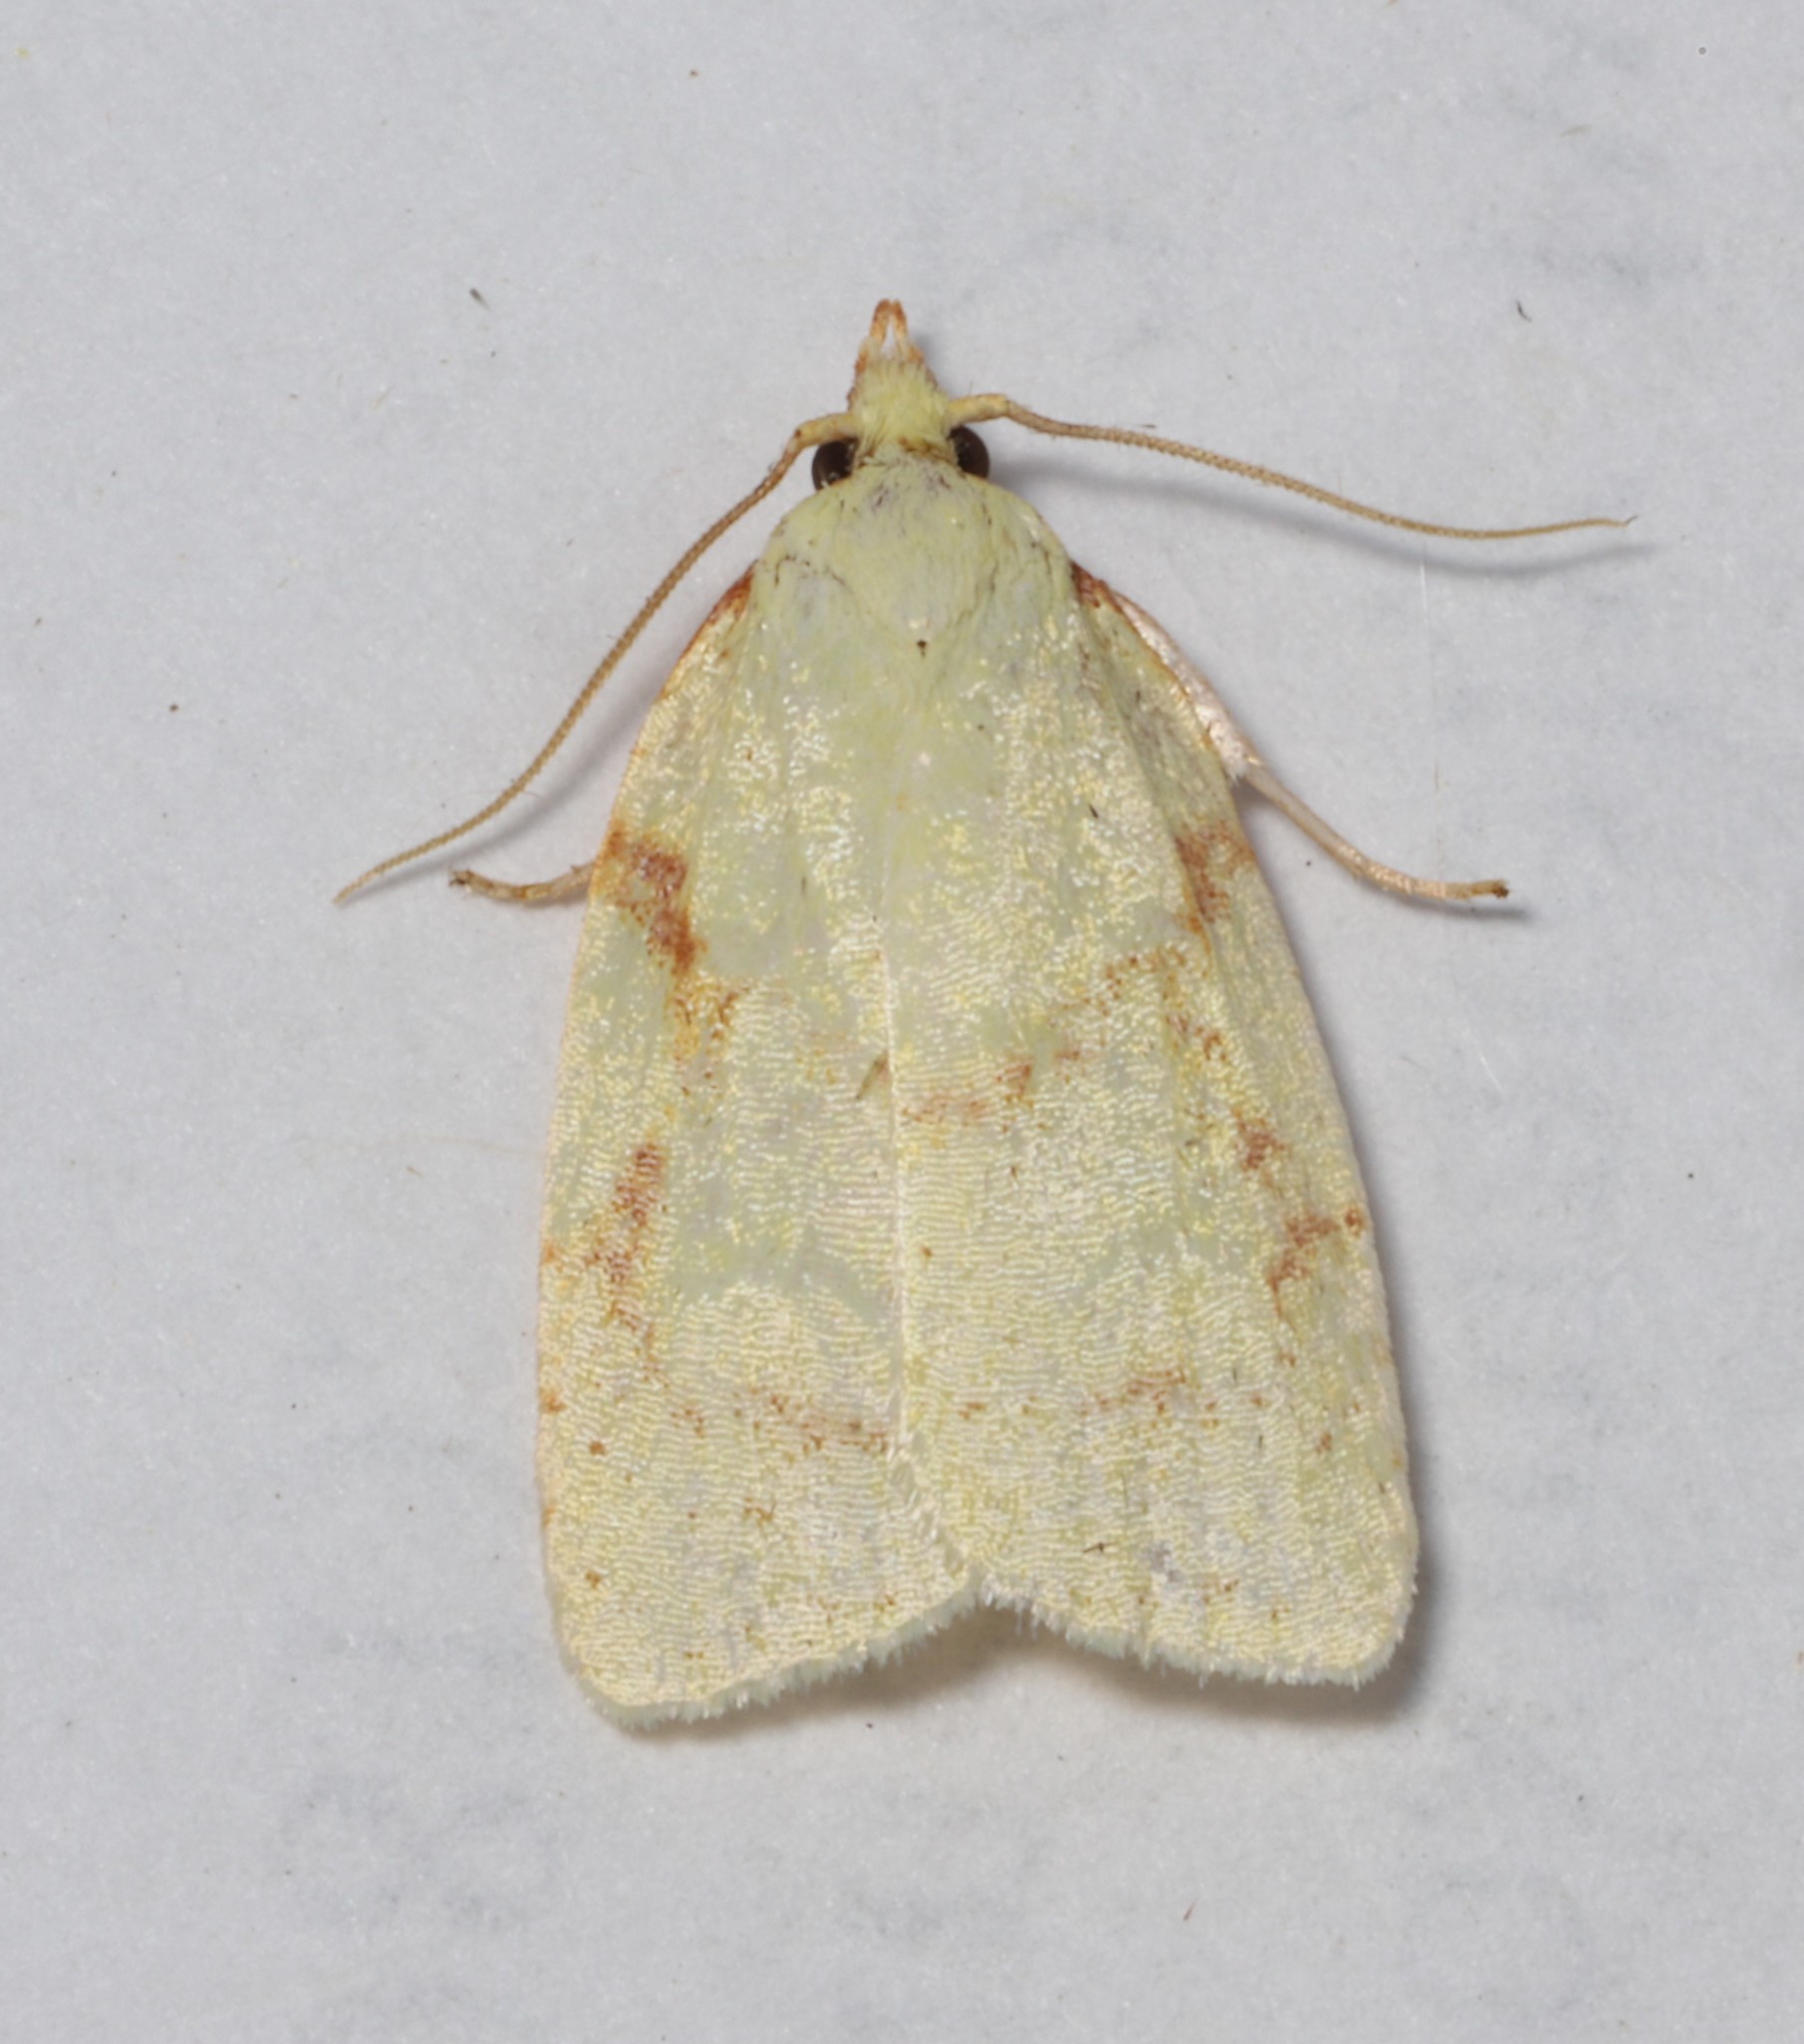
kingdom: Animalia
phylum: Arthropoda
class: Insecta
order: Lepidoptera
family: Tortricidae
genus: Cenopis
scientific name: Cenopis pettitana
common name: Maple-basswood leafroller moth
